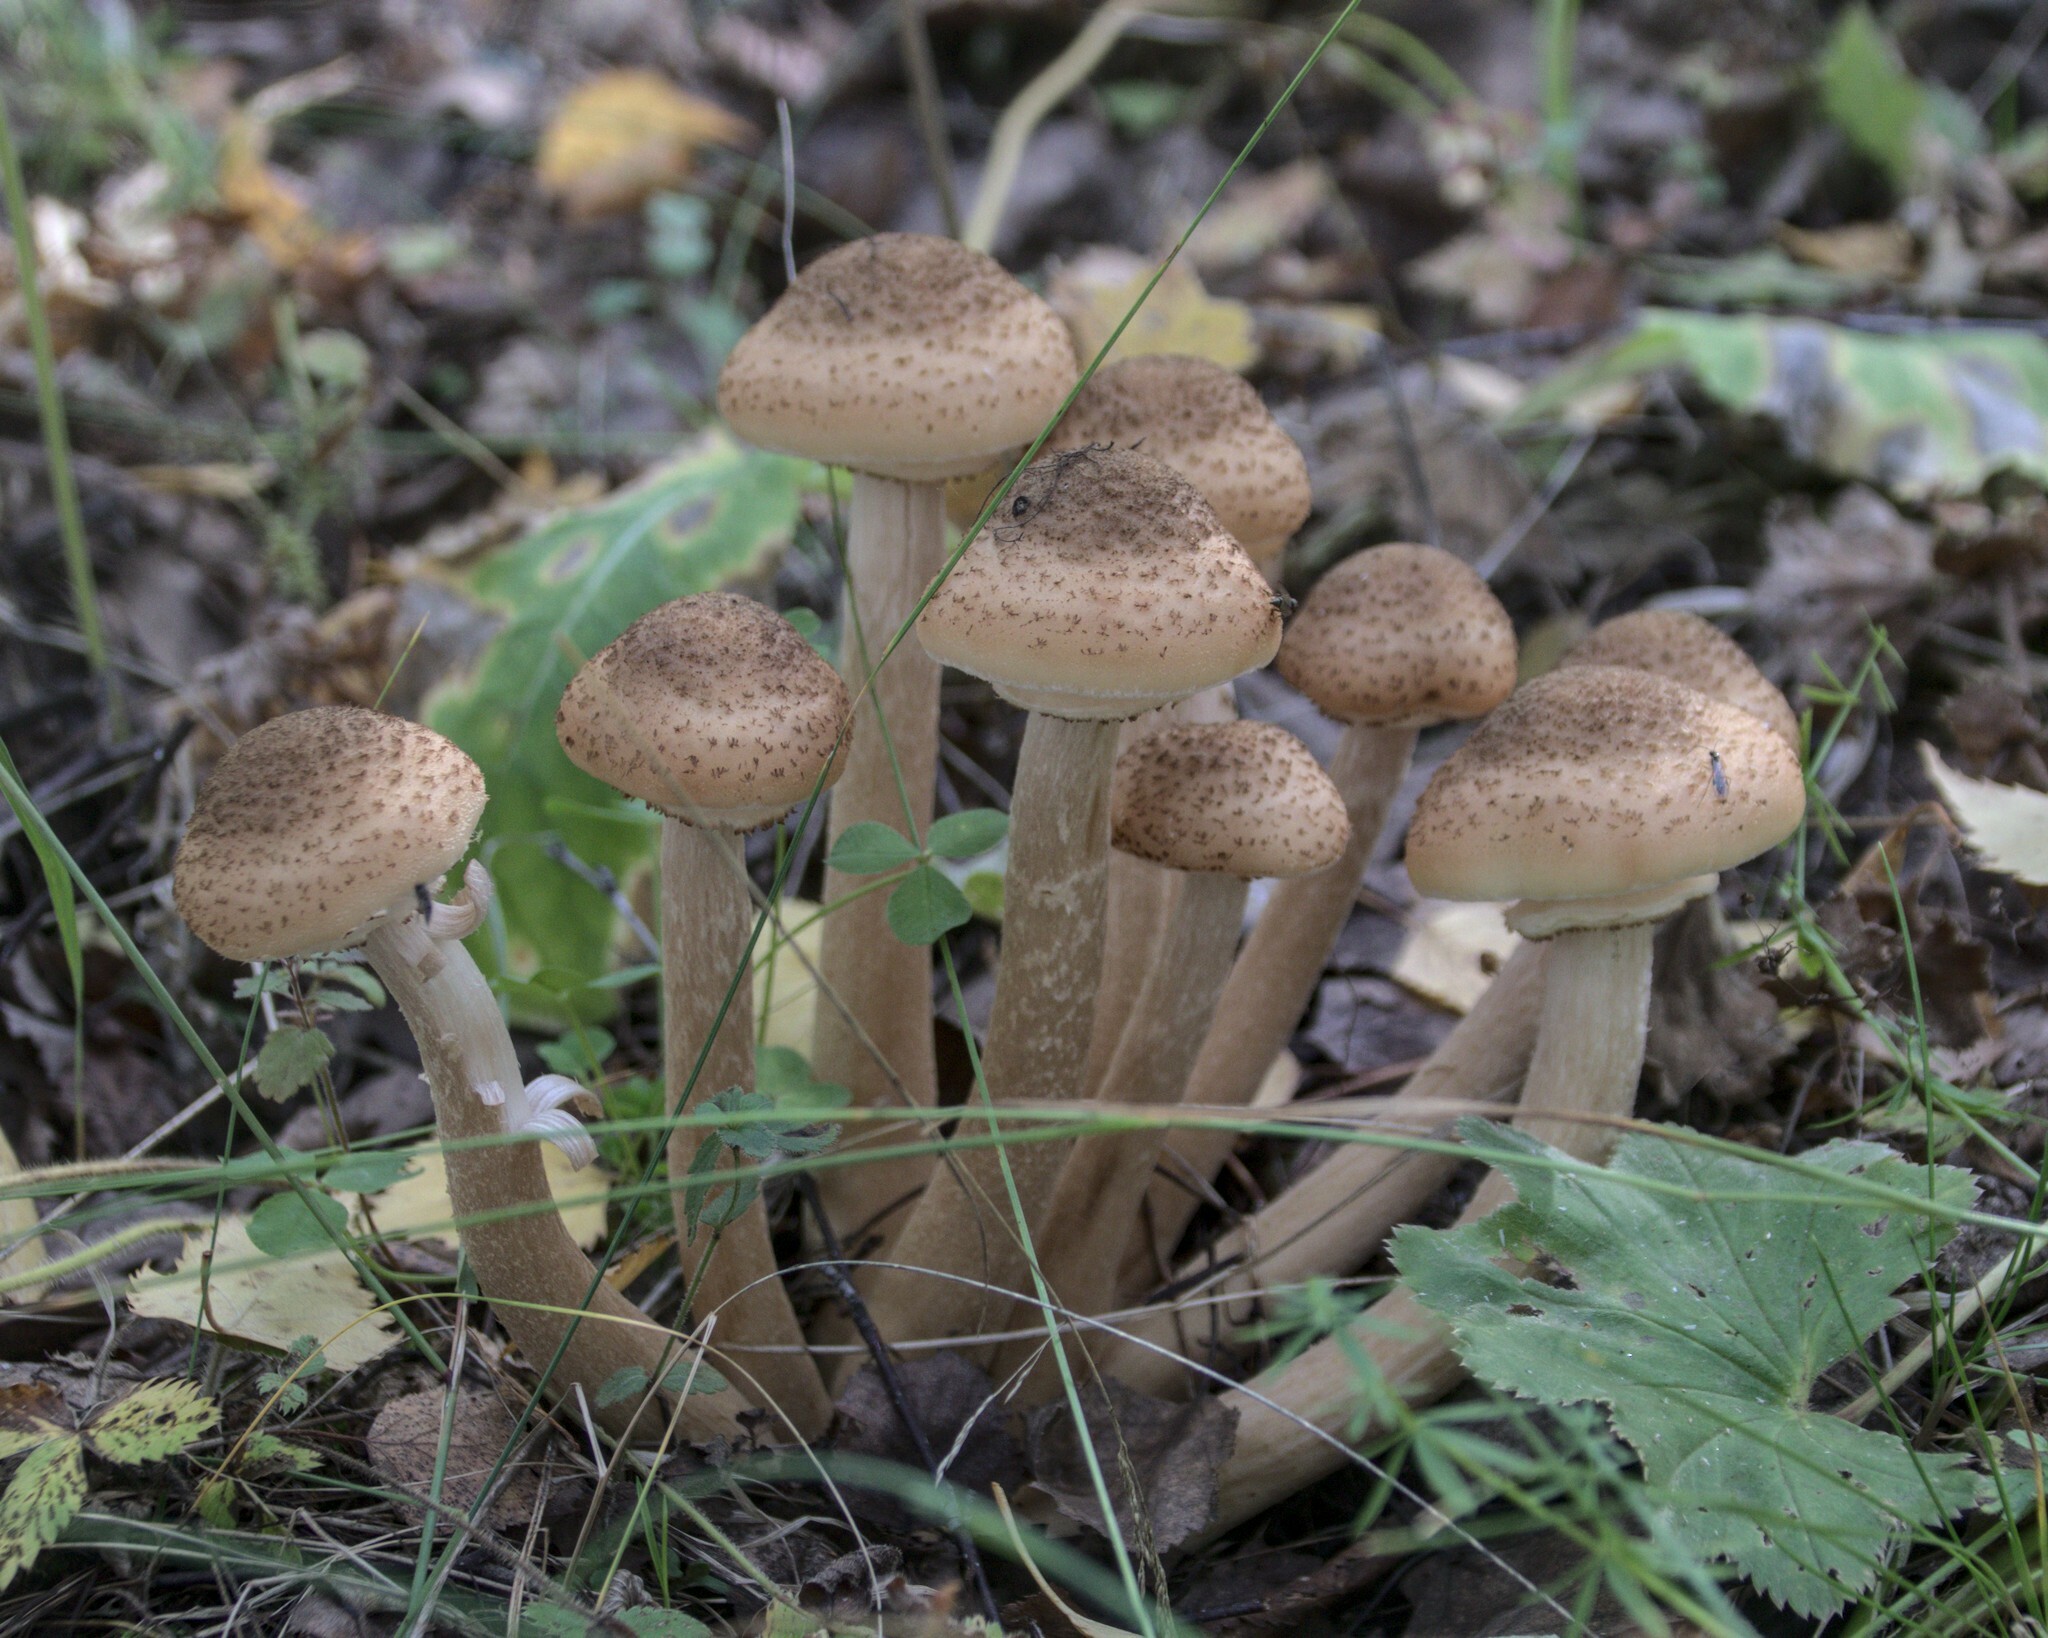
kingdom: Fungi
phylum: Basidiomycota
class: Agaricomycetes
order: Agaricales
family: Physalacriaceae
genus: Armillaria
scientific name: Armillaria borealis
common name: Northern honey fungus
